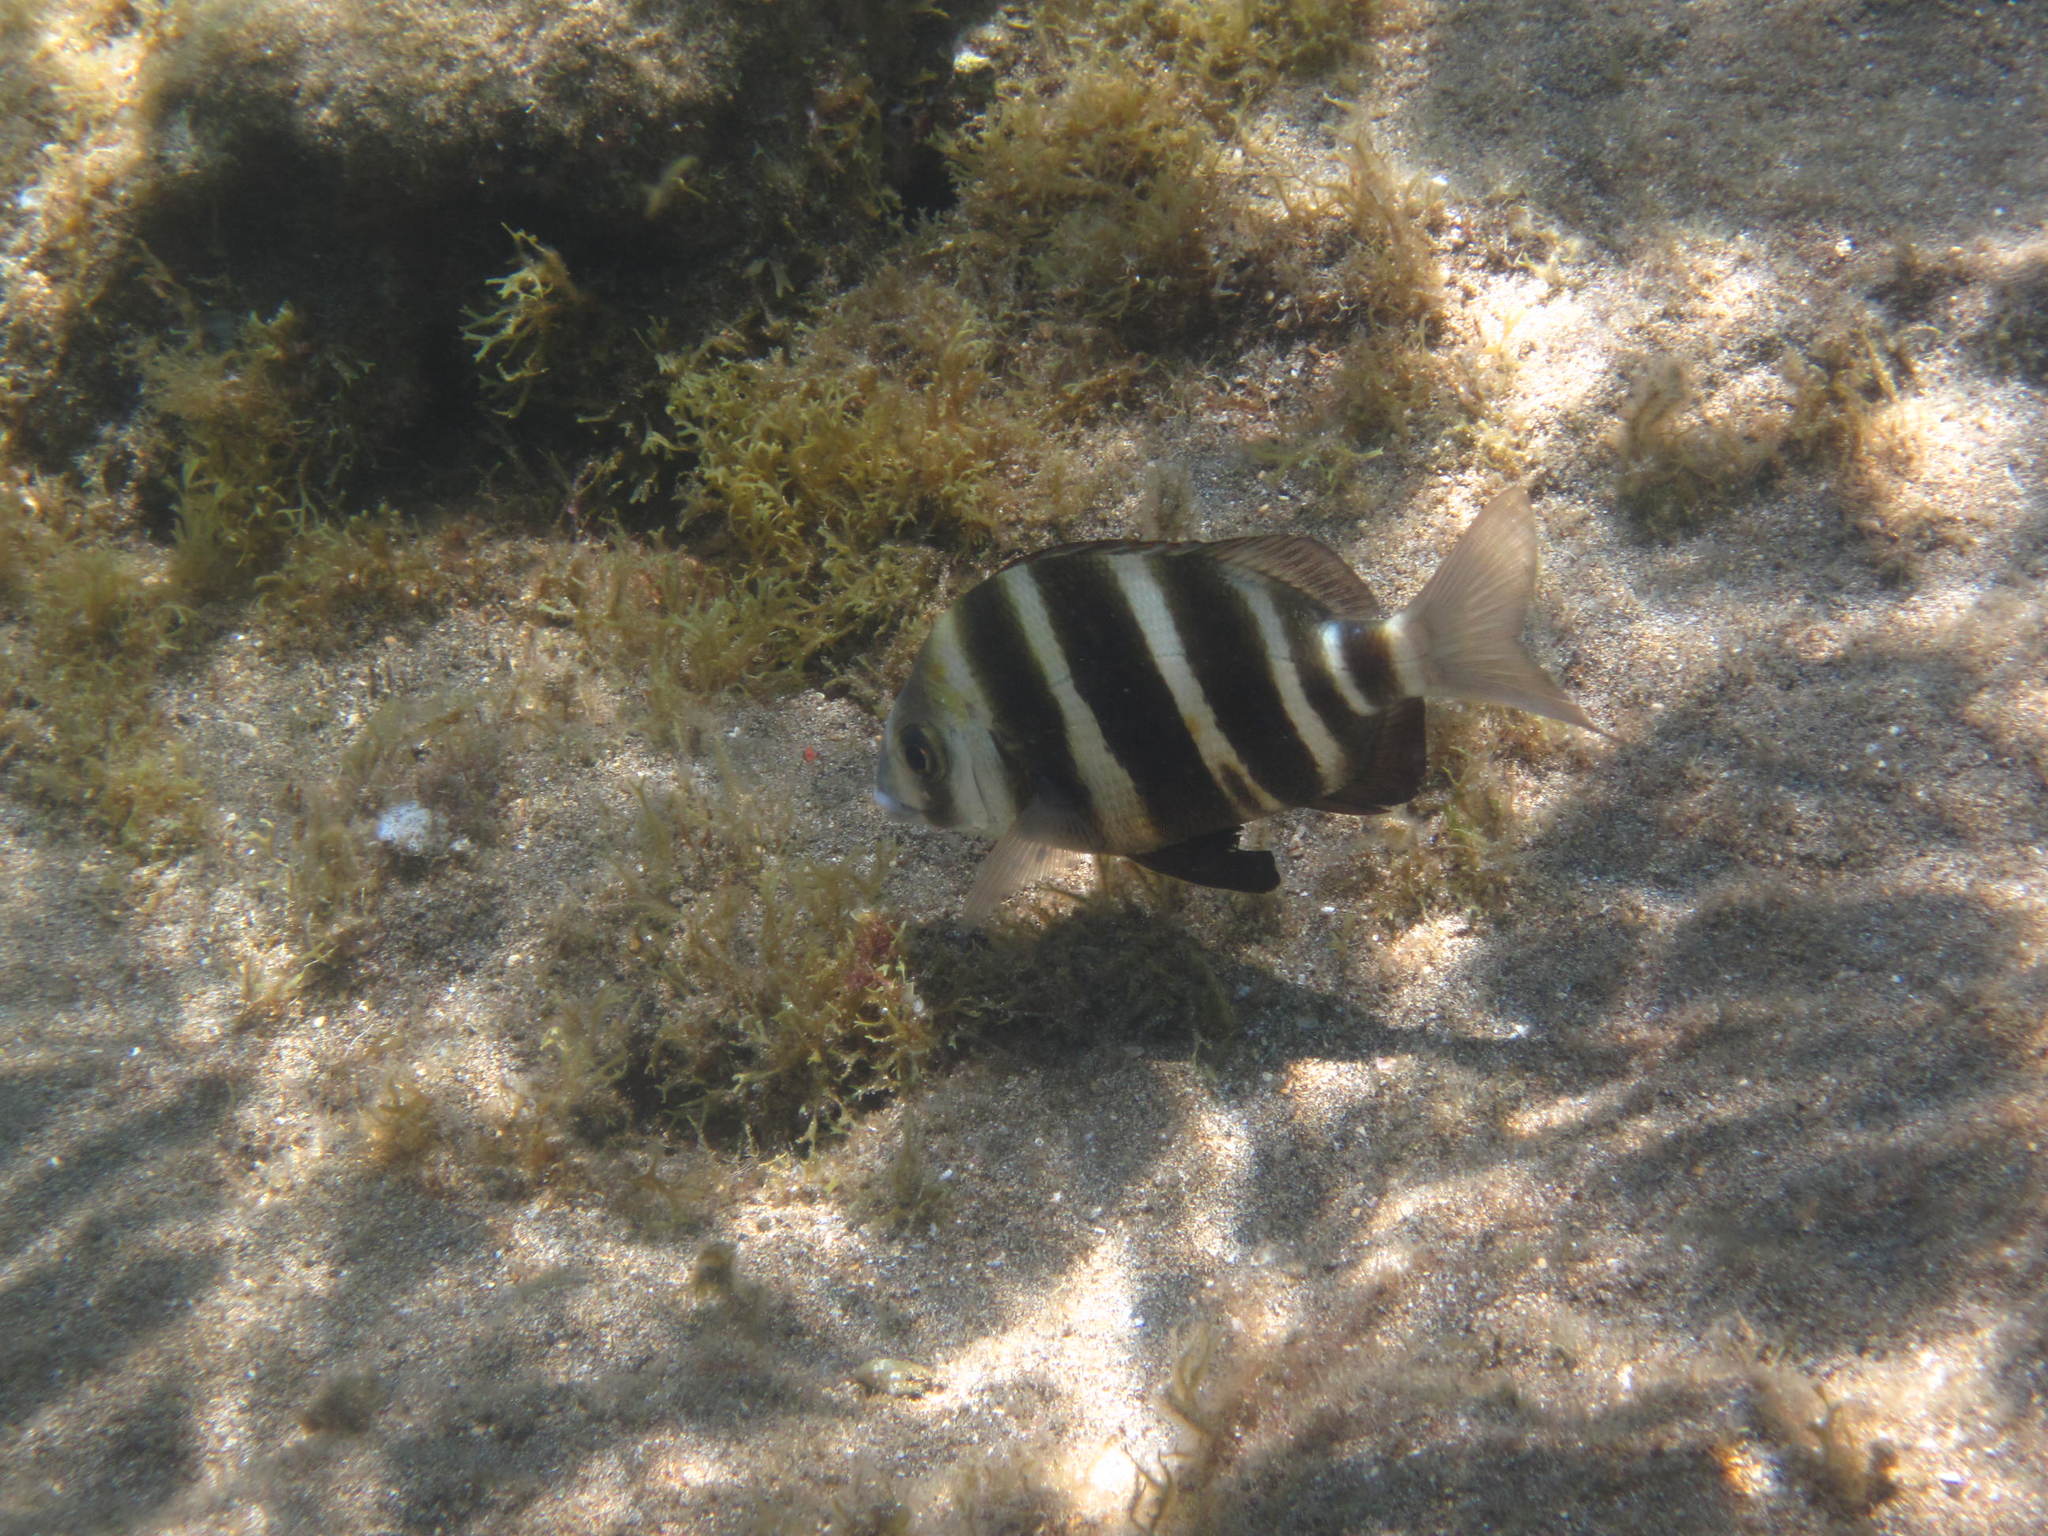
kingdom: Animalia
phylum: Chordata
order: Perciformes
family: Sparidae
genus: Diplodus
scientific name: Diplodus cervinus
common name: Oman porgy
